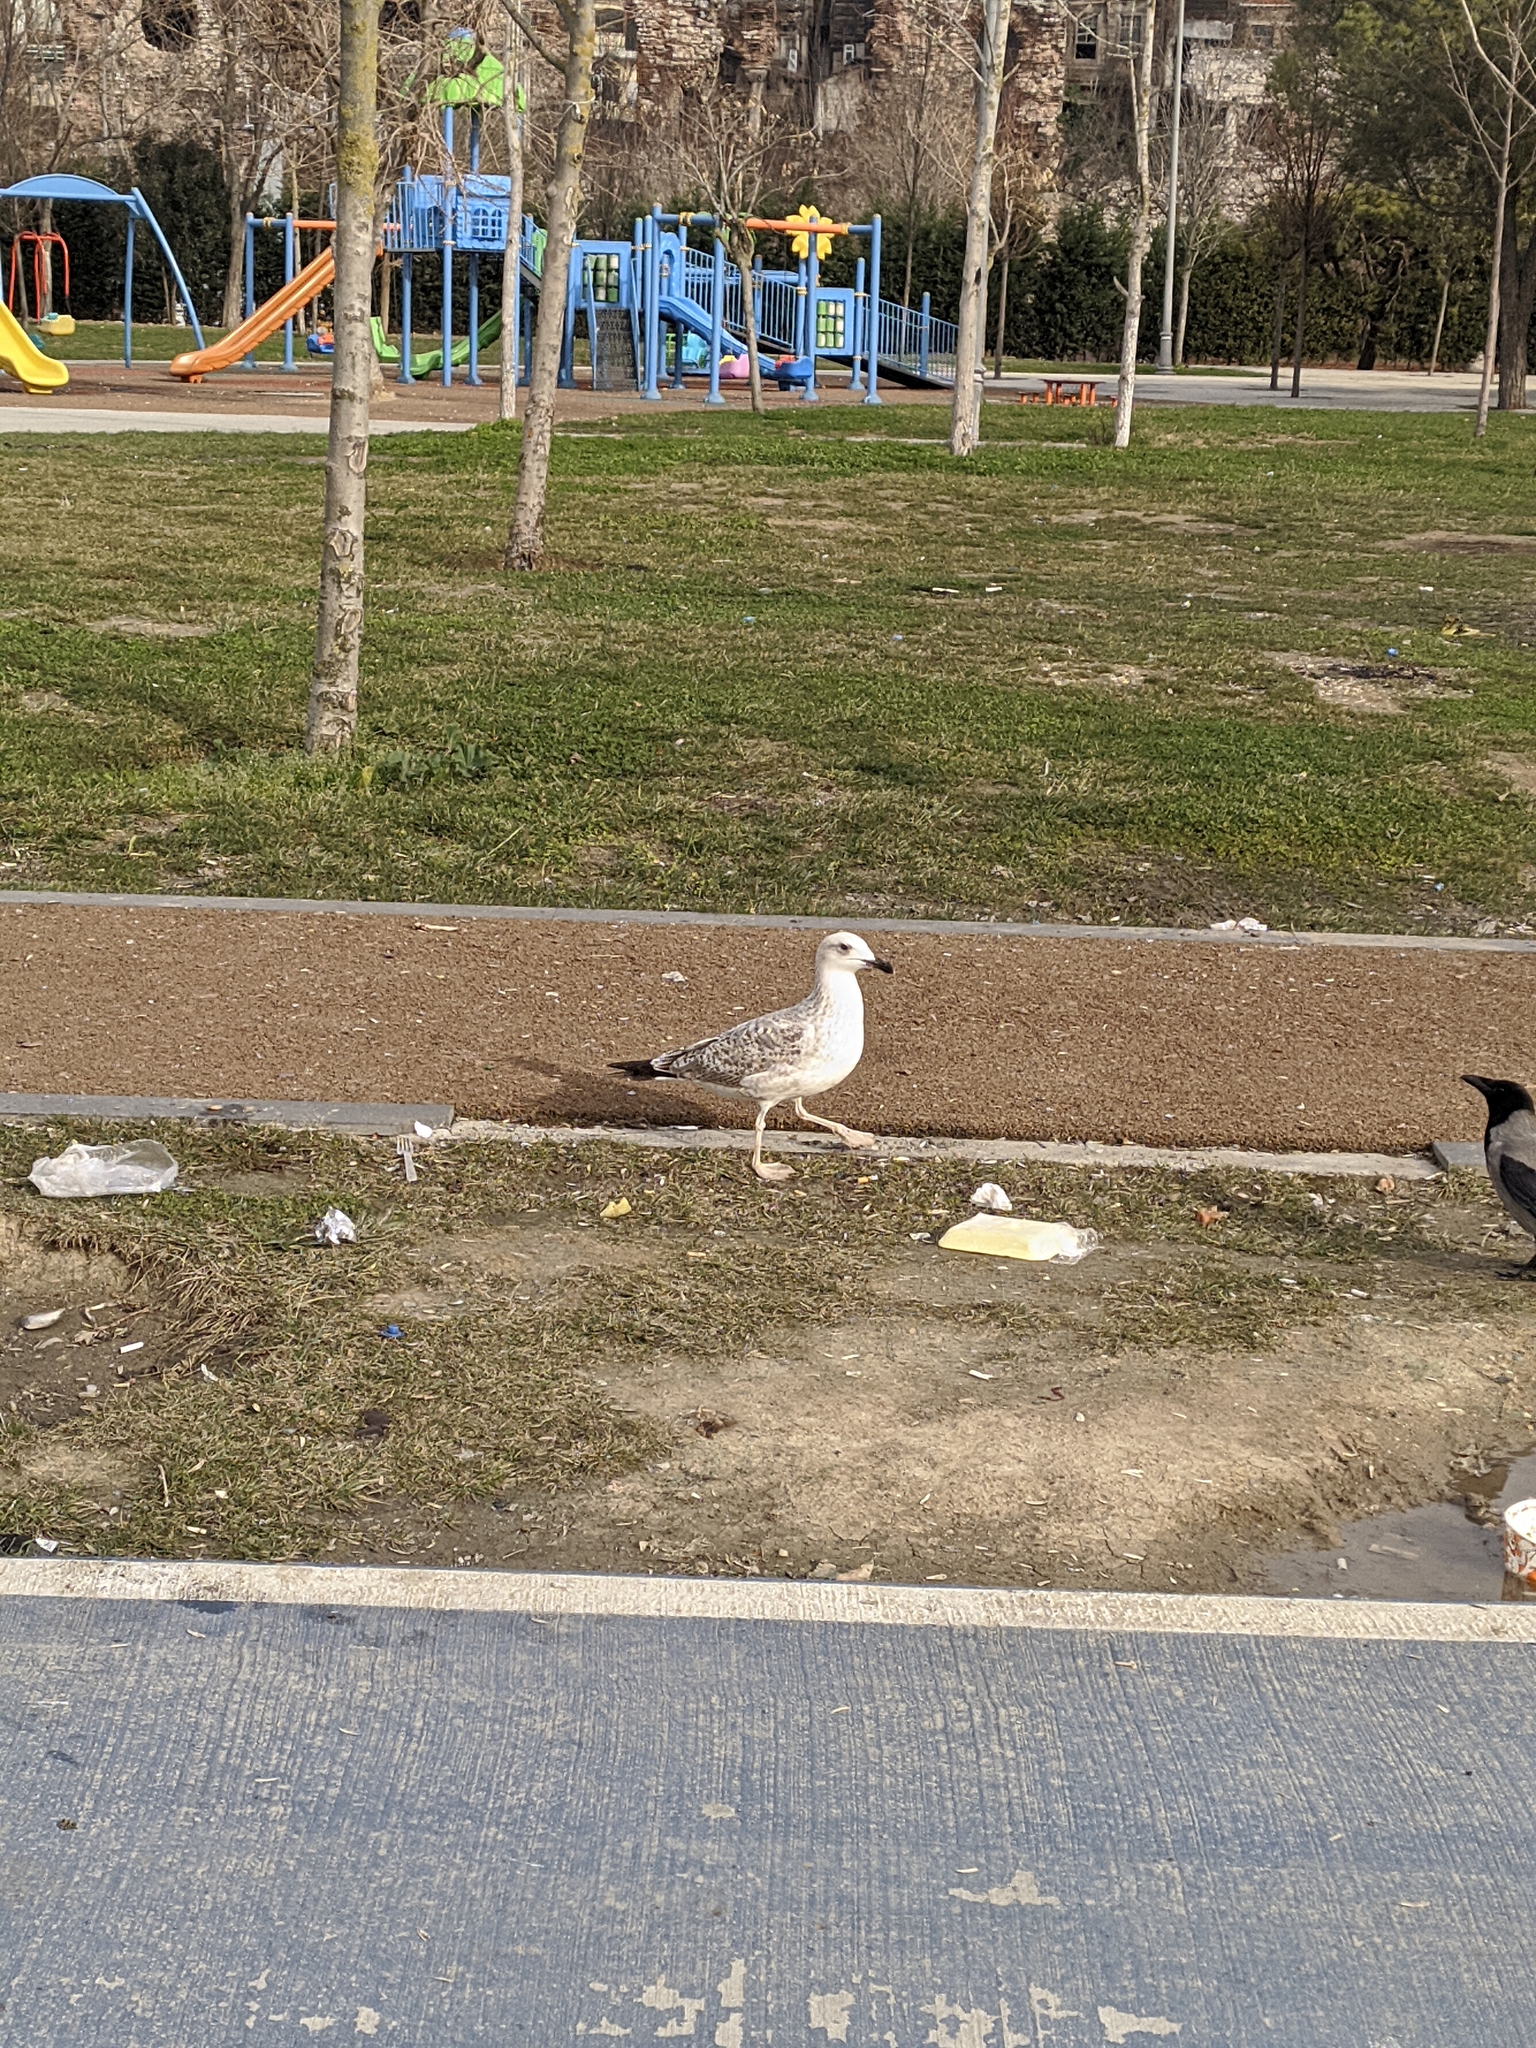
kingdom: Animalia
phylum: Chordata
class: Aves
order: Charadriiformes
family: Laridae
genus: Larus
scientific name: Larus michahellis
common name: Yellow-legged gull
